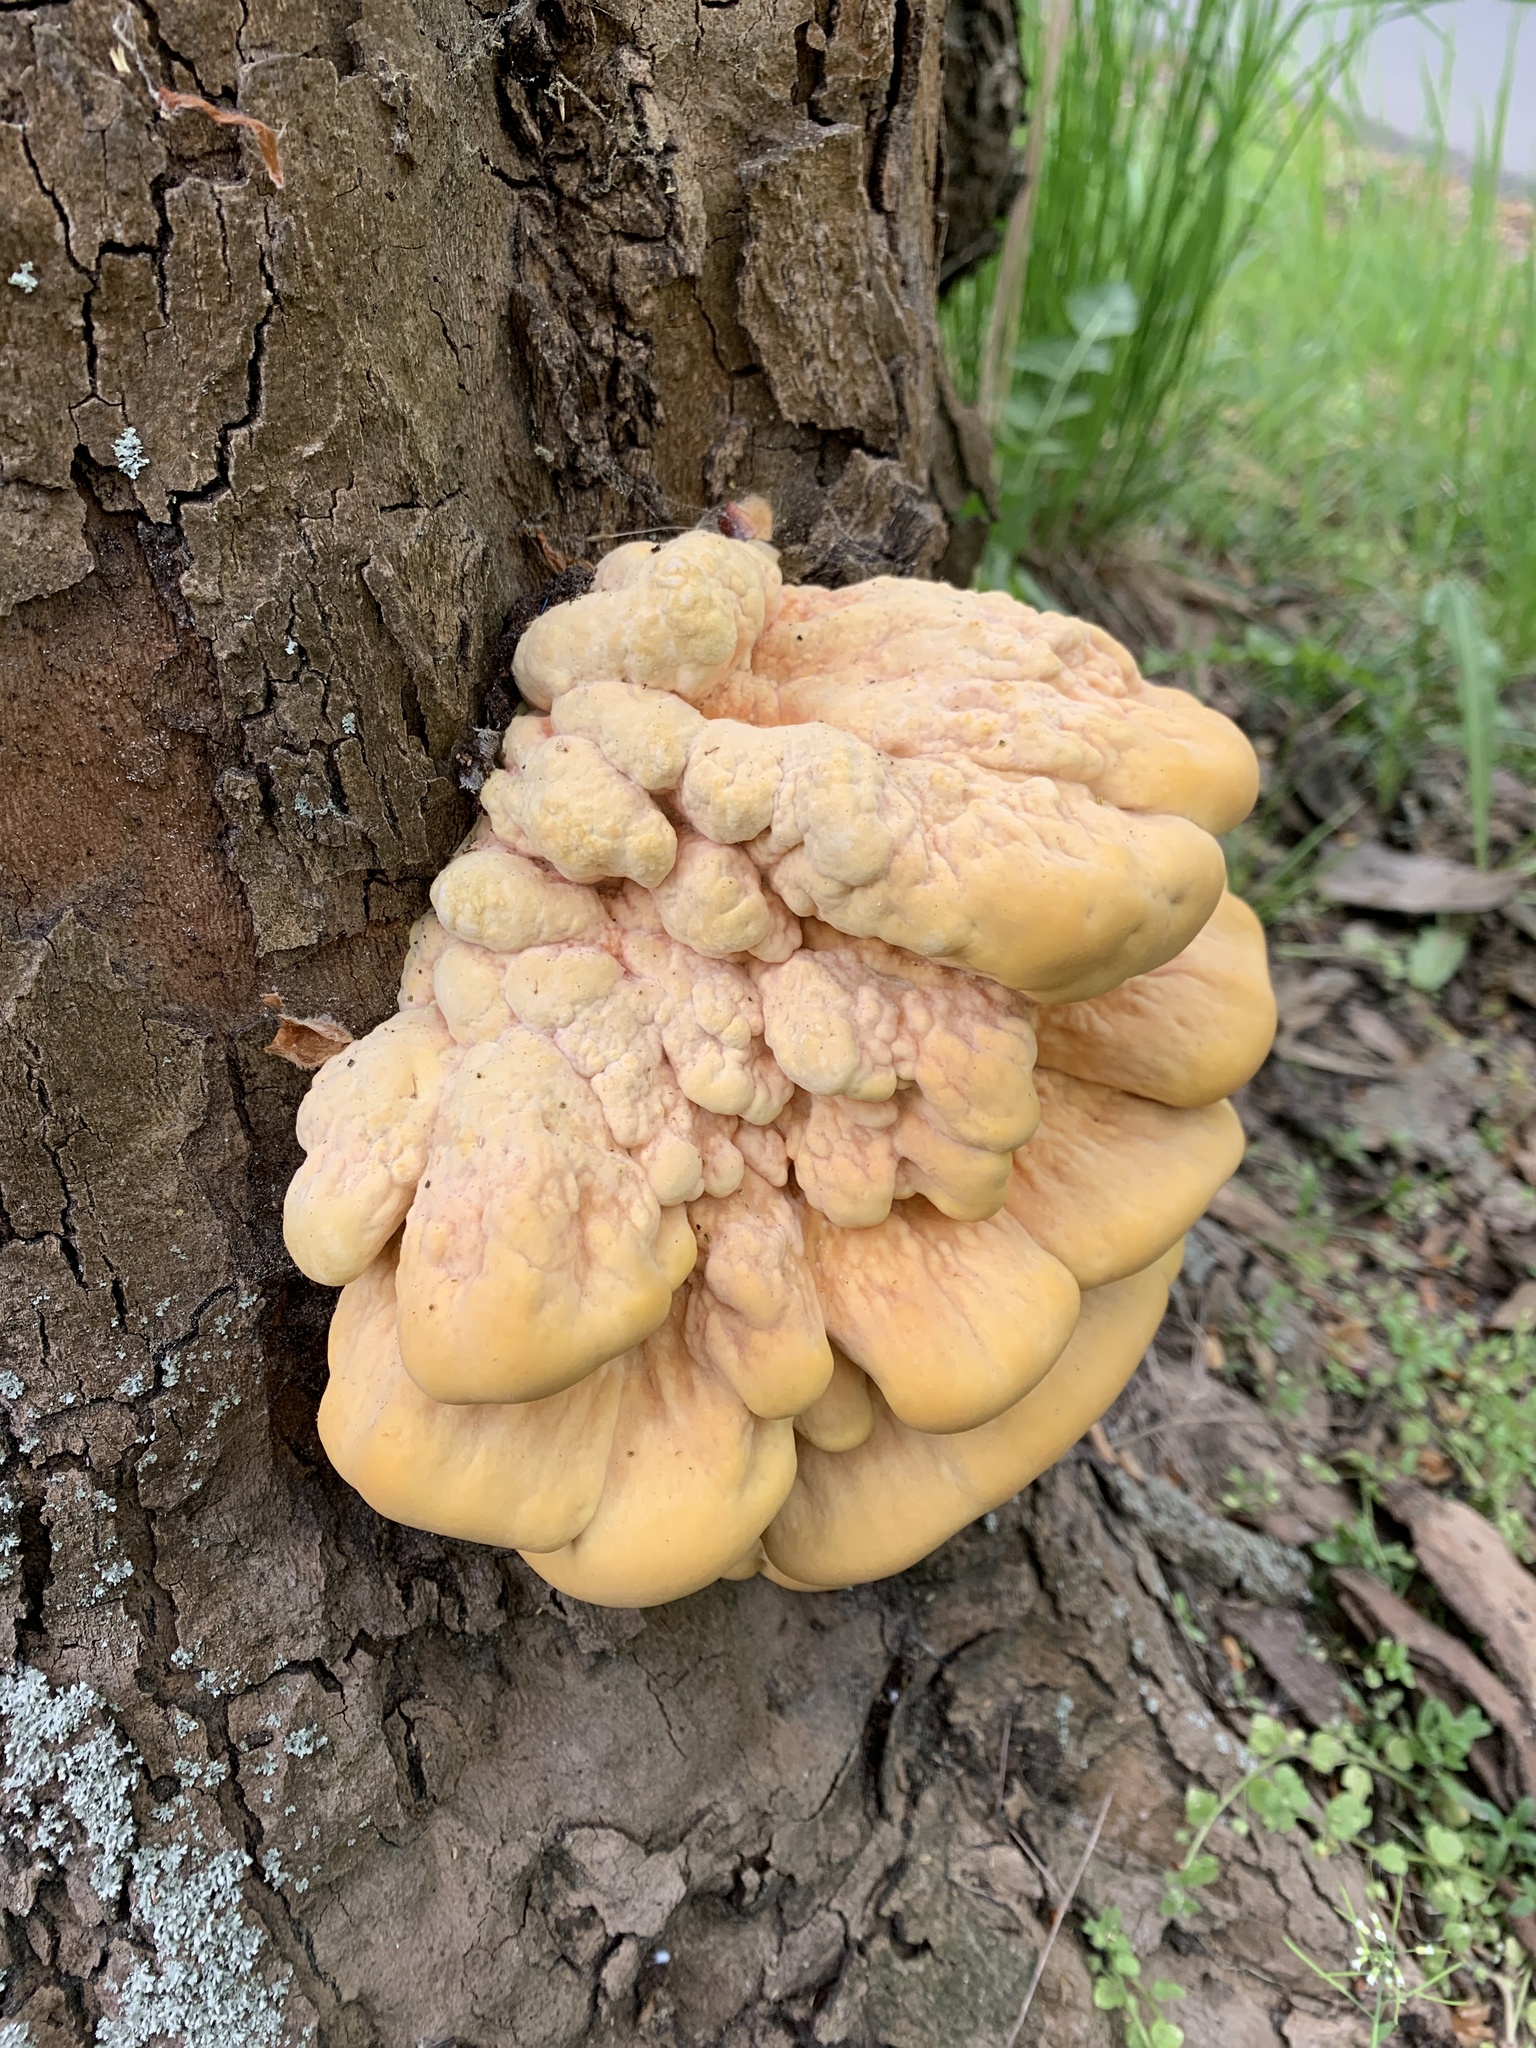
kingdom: Fungi
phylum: Basidiomycota
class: Agaricomycetes
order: Polyporales
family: Laetiporaceae
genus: Laetiporus
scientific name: Laetiporus sulphureus
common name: Chicken of the woods
